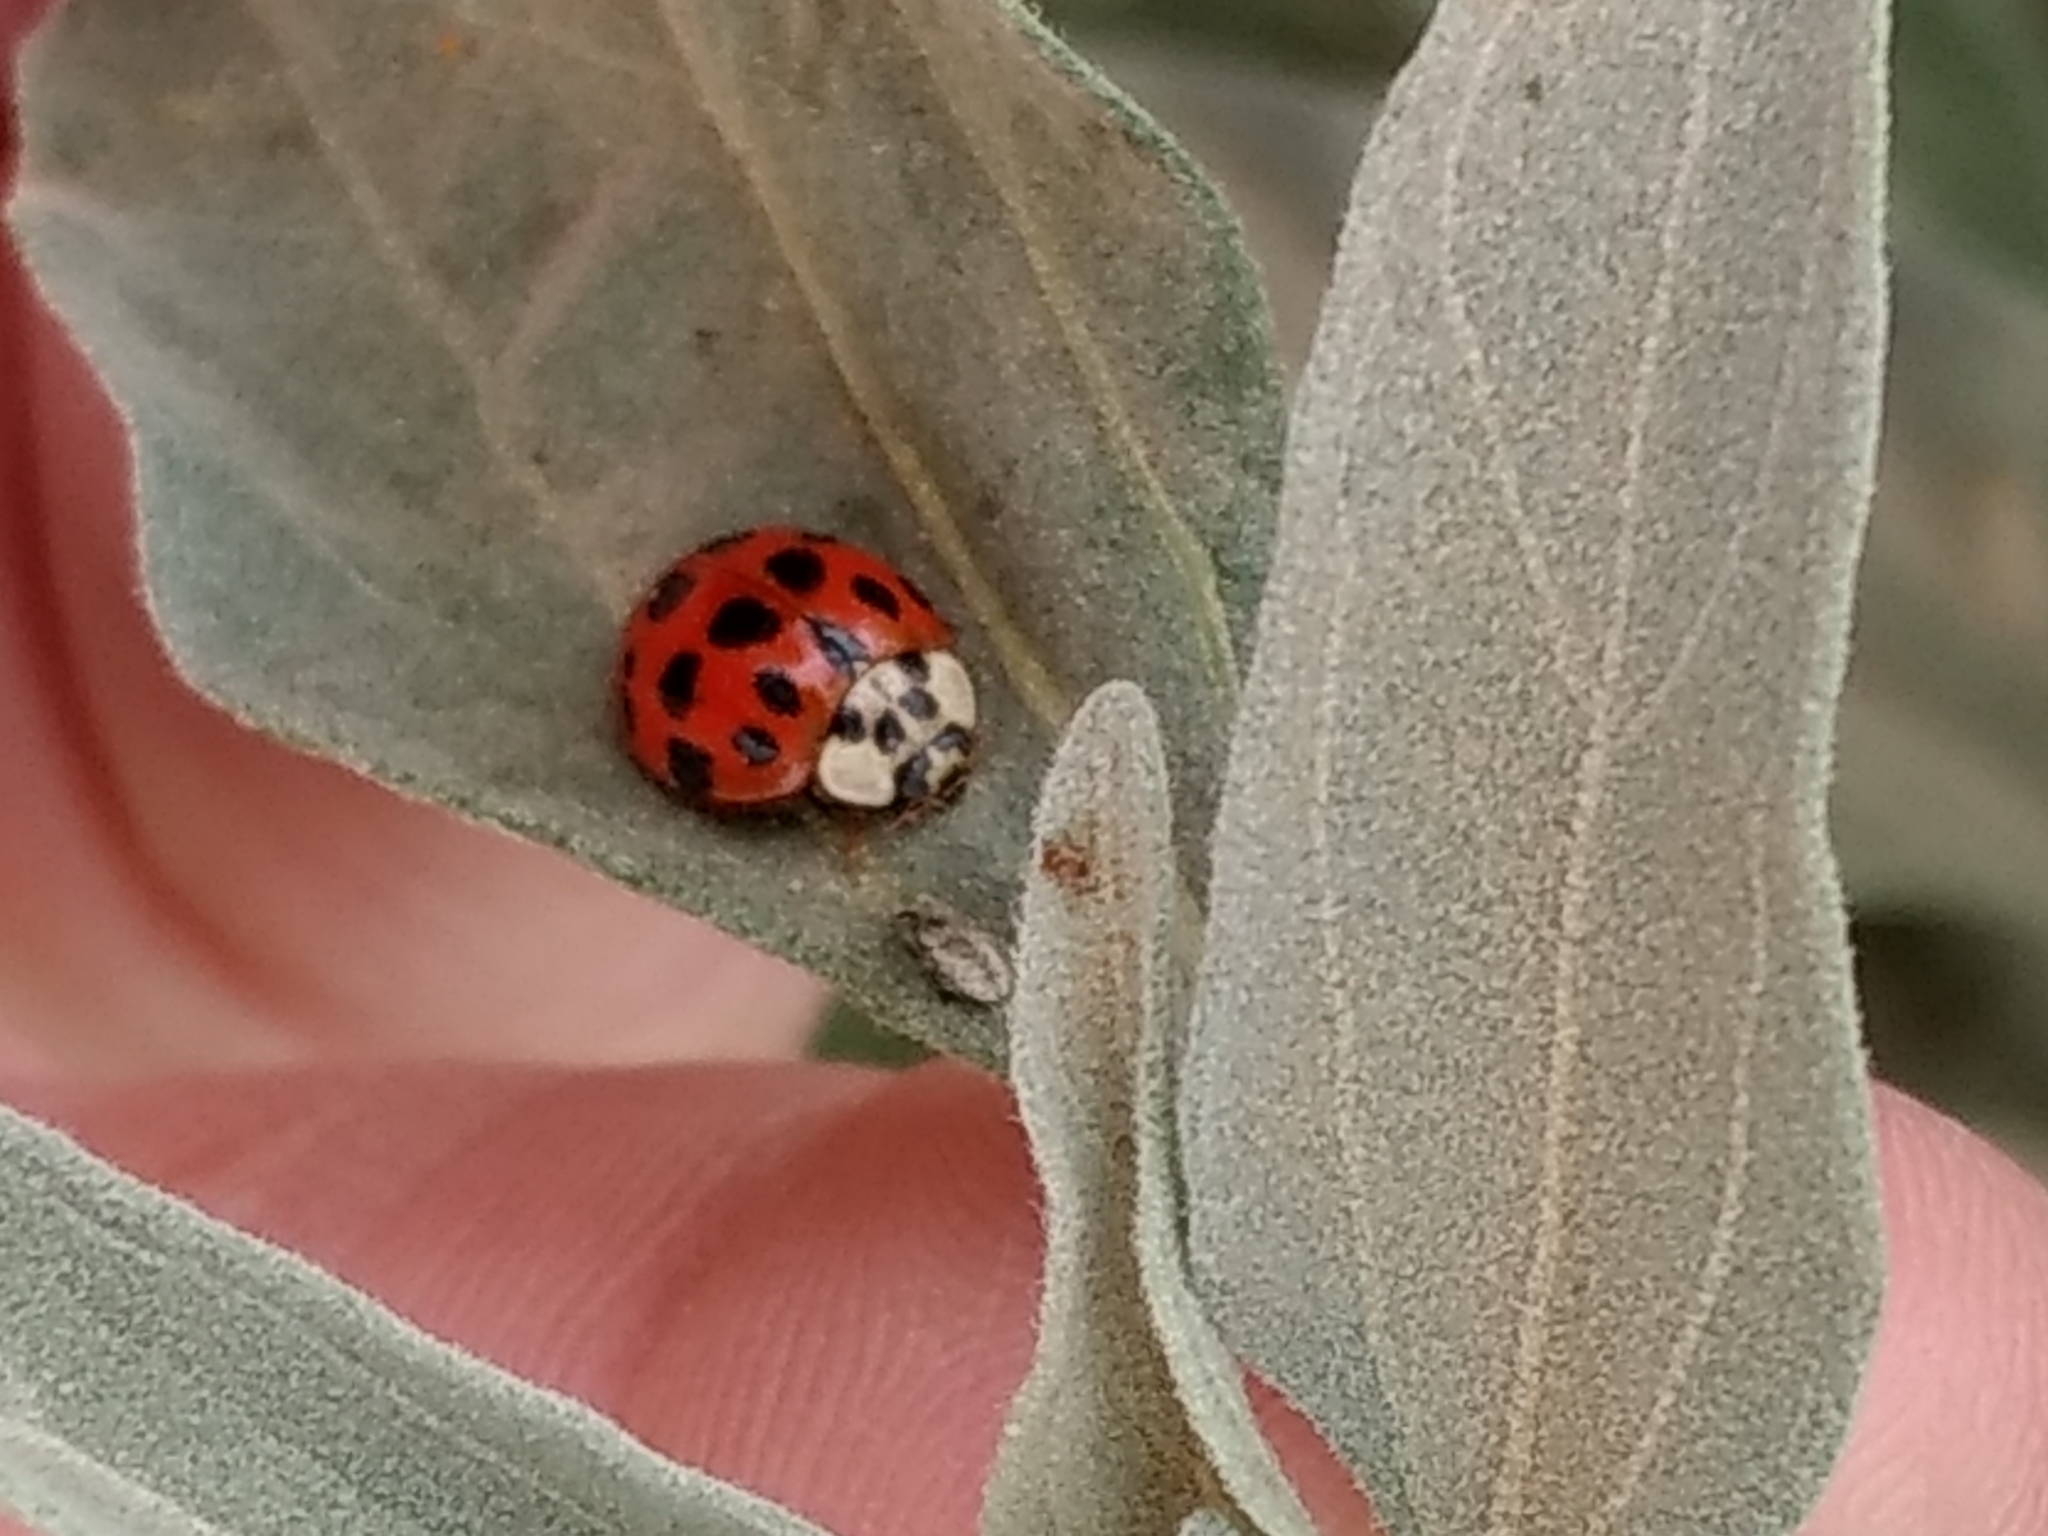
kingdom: Animalia
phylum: Arthropoda
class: Insecta
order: Coleoptera
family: Coccinellidae
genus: Harmonia
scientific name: Harmonia axyridis
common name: Harlequin ladybird
